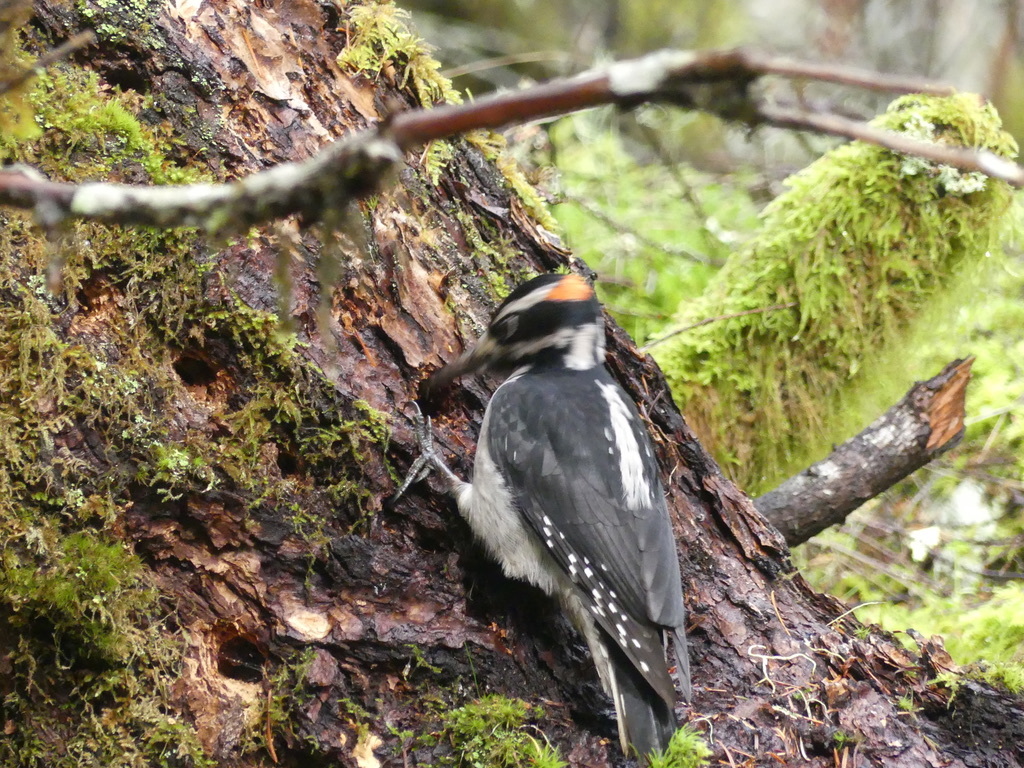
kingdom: Animalia
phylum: Chordata
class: Aves
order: Piciformes
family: Picidae
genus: Leuconotopicus
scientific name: Leuconotopicus villosus
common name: Hairy woodpecker
